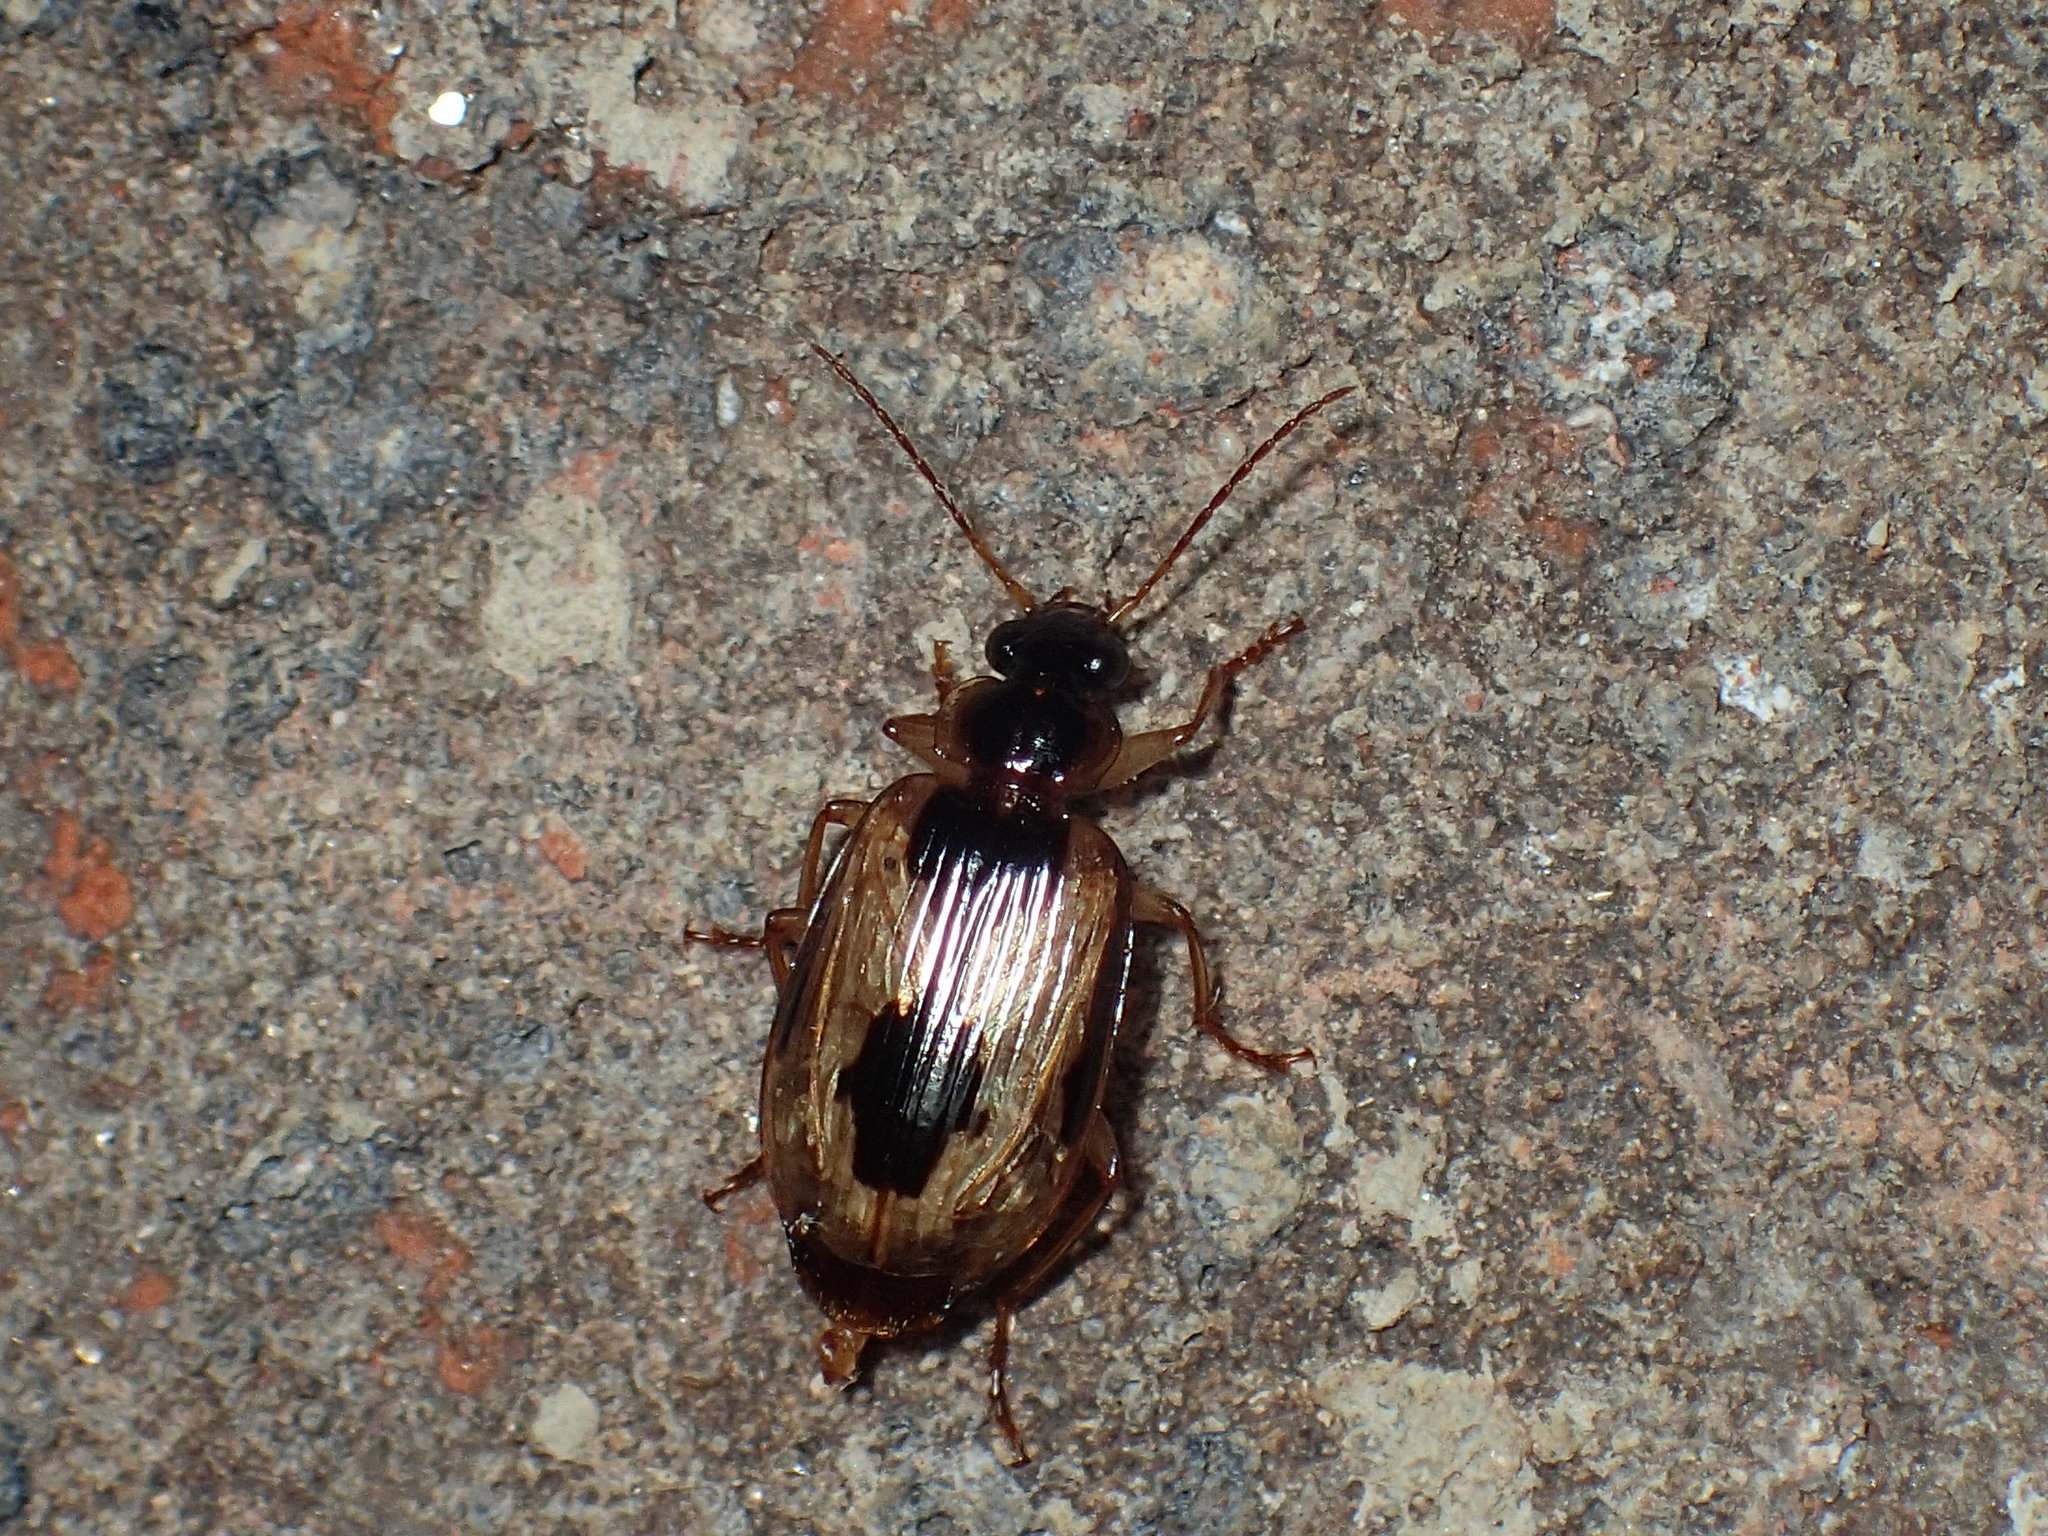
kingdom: Animalia
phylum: Arthropoda
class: Insecta
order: Coleoptera
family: Carabidae
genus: Lebia
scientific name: Lebia fuscata
